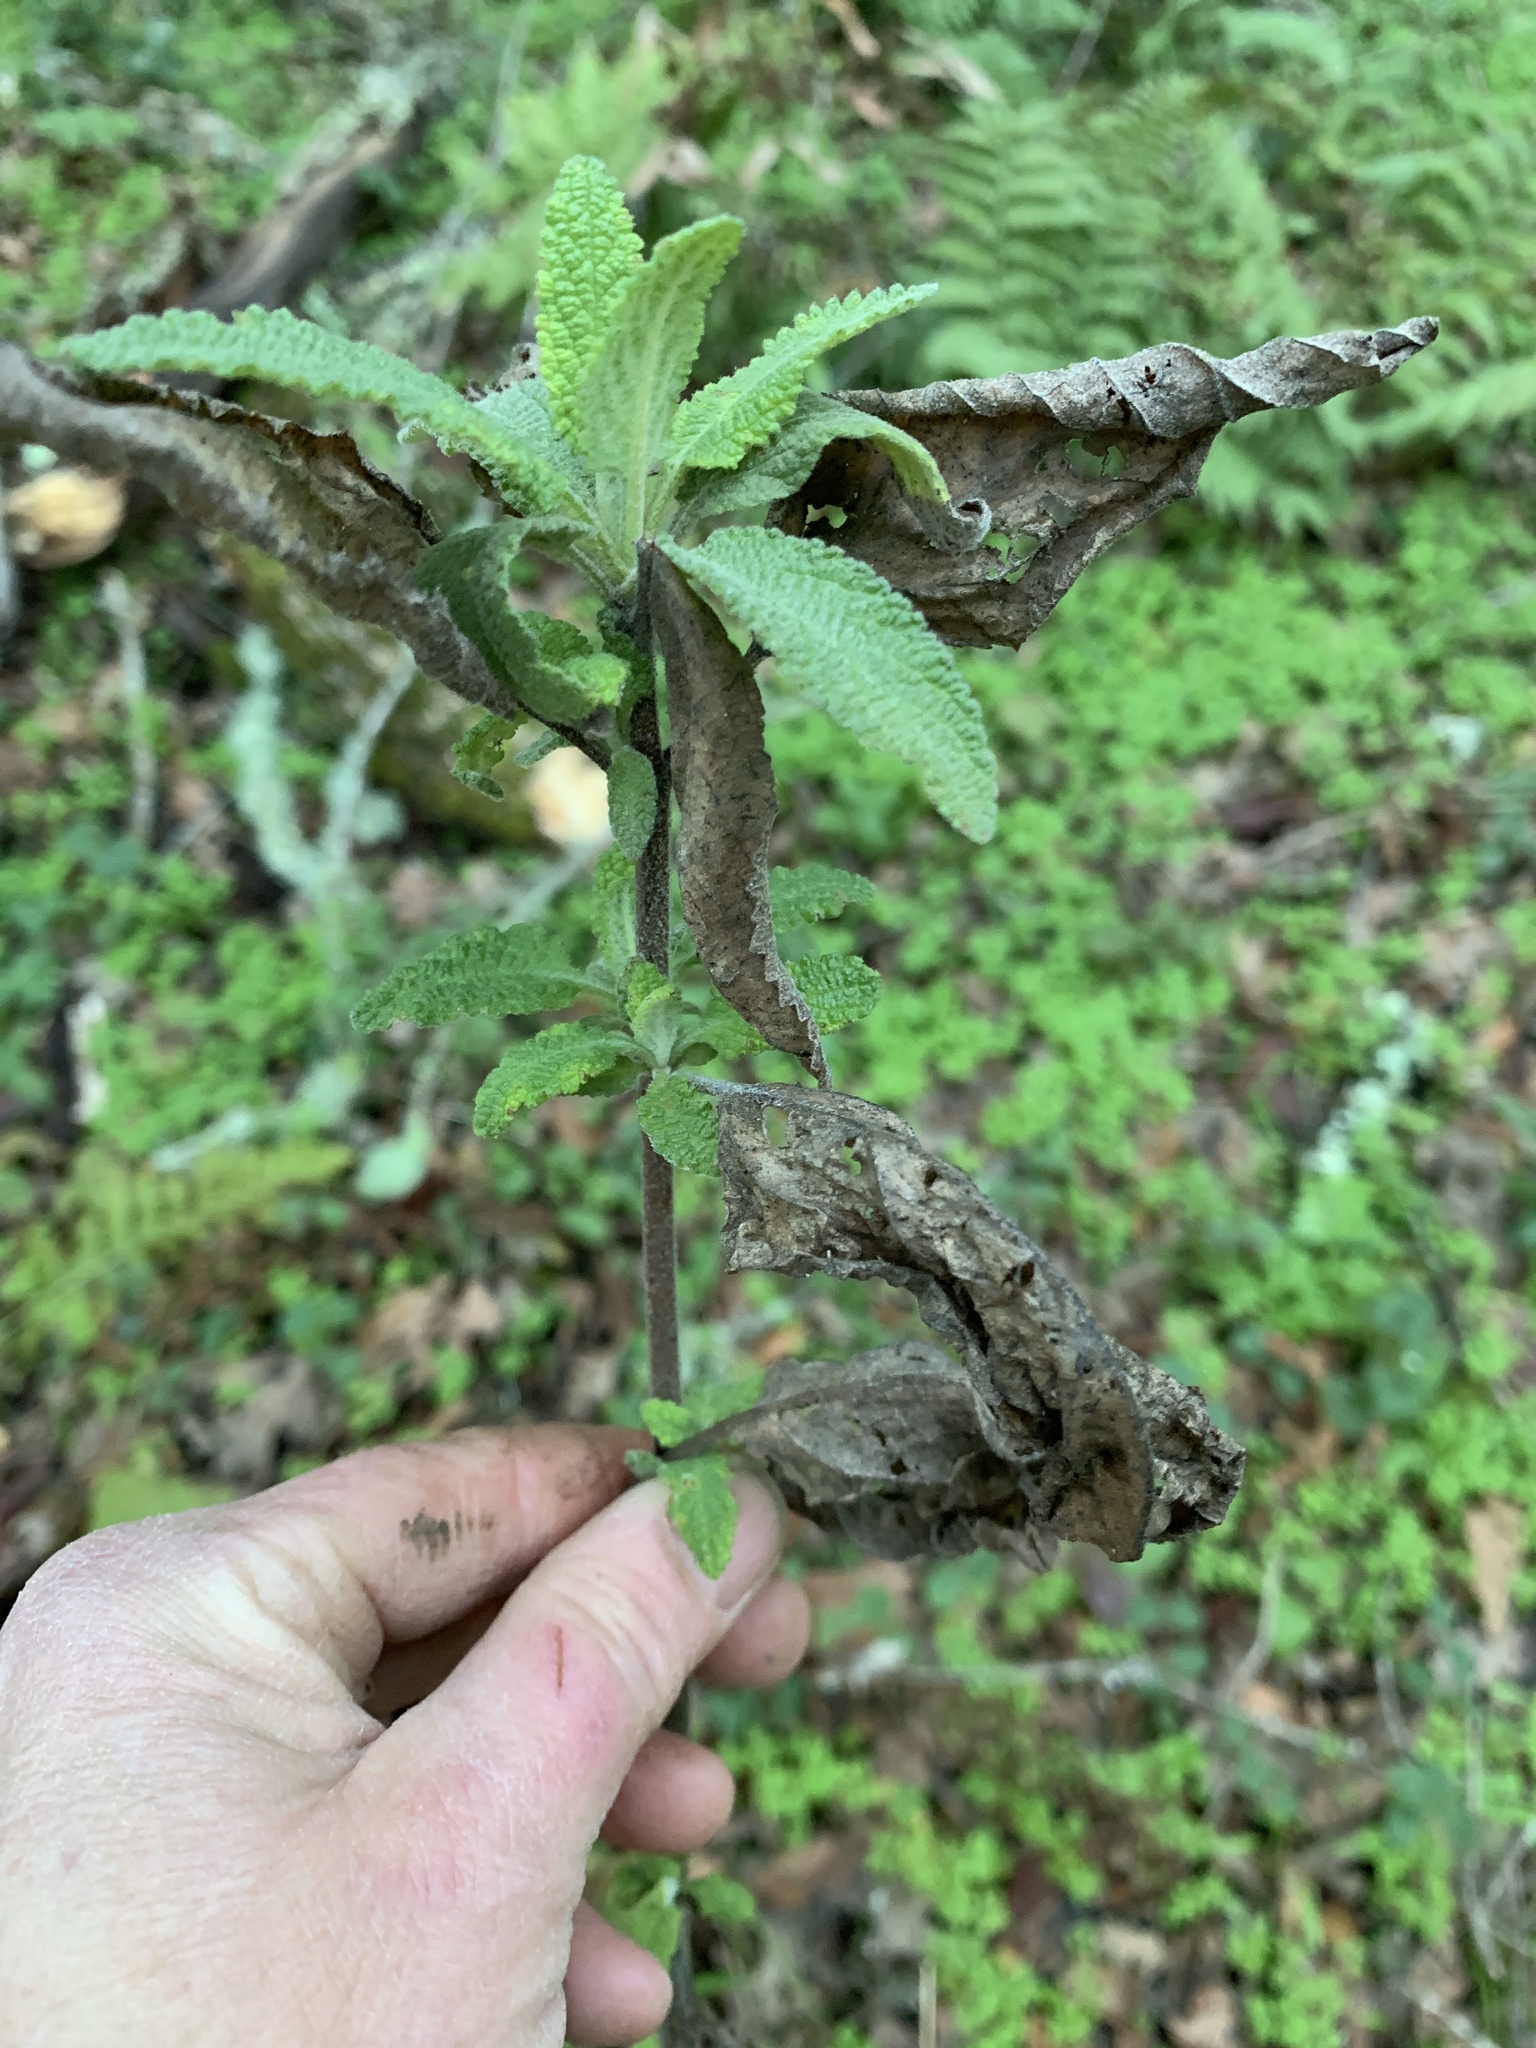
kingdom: Plantae
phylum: Tracheophyta
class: Magnoliopsida
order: Lamiales
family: Lamiaceae
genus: Lepechinia
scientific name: Lepechinia calycina
